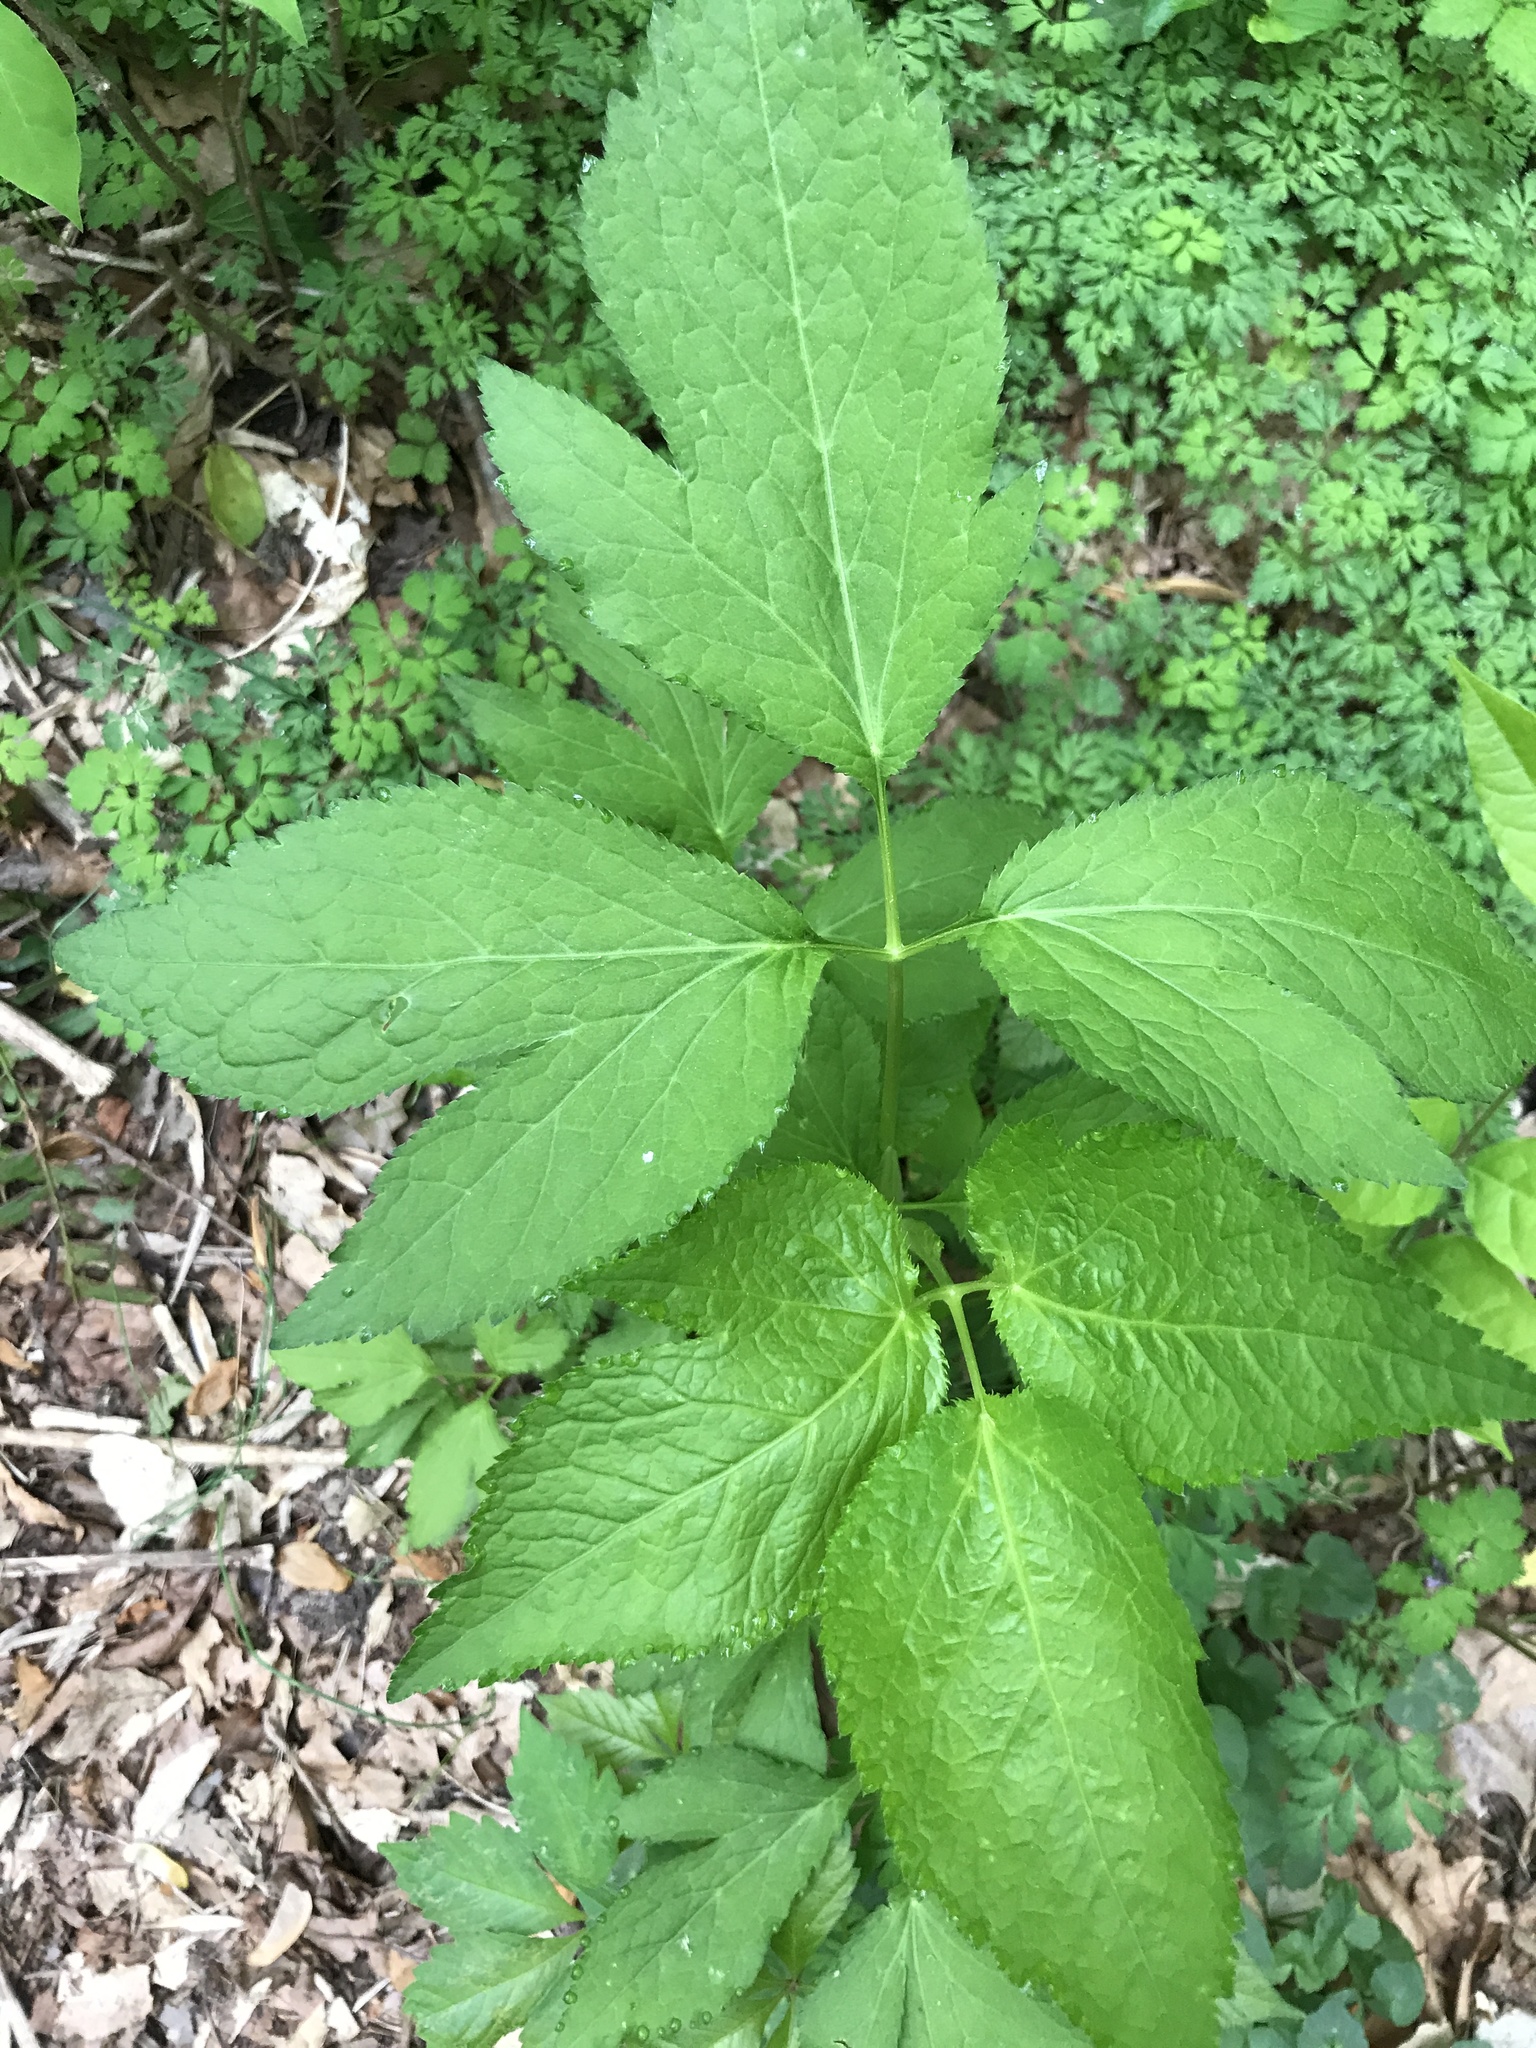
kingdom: Plantae
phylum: Tracheophyta
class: Magnoliopsida
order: Apiales
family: Apiaceae
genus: Cryptotaenia
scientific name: Cryptotaenia canadensis
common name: Honewort
